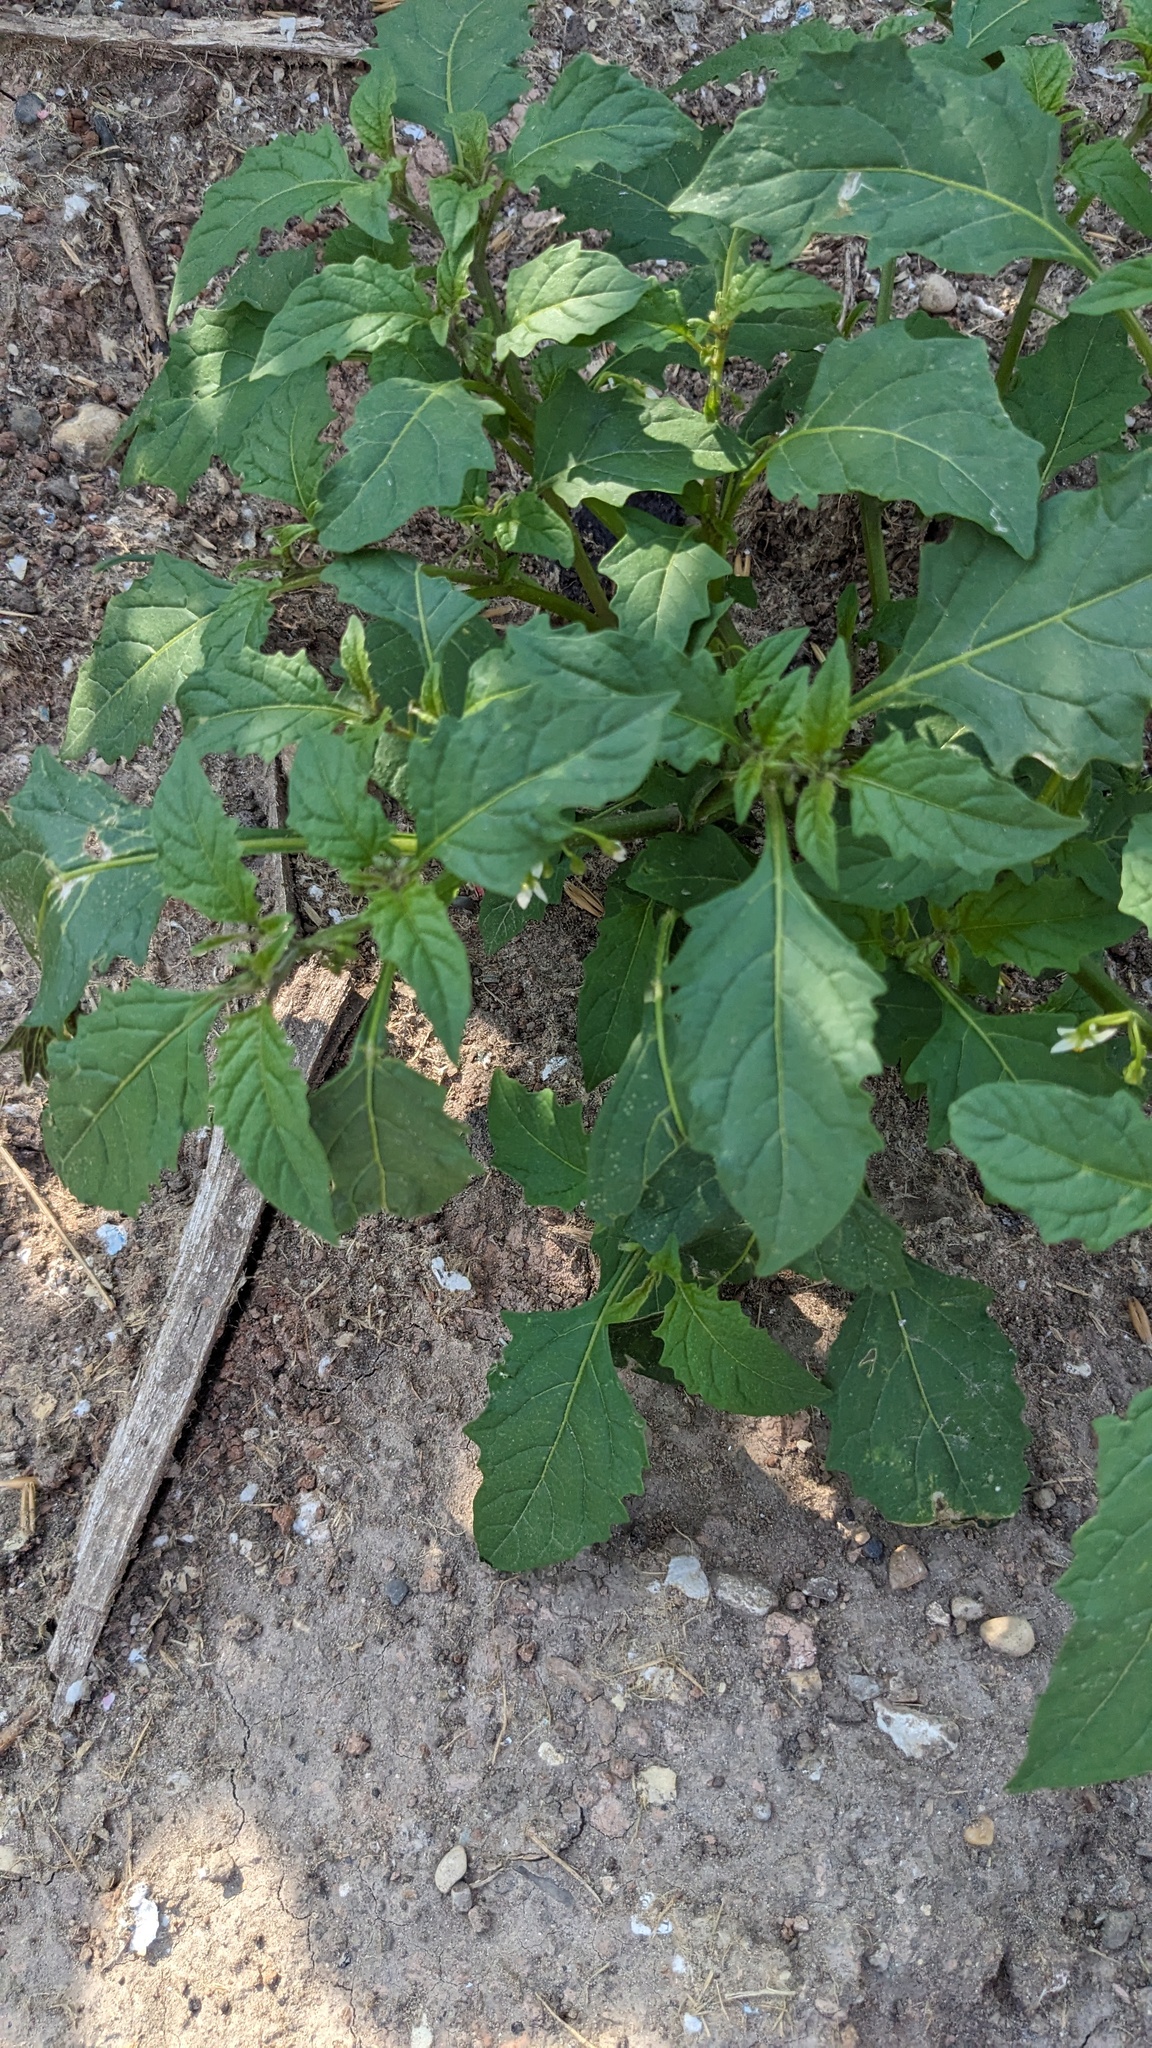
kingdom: Plantae
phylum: Tracheophyta
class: Magnoliopsida
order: Solanales
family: Solanaceae
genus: Solanum
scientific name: Solanum emulans
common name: Eastern black nightshade
